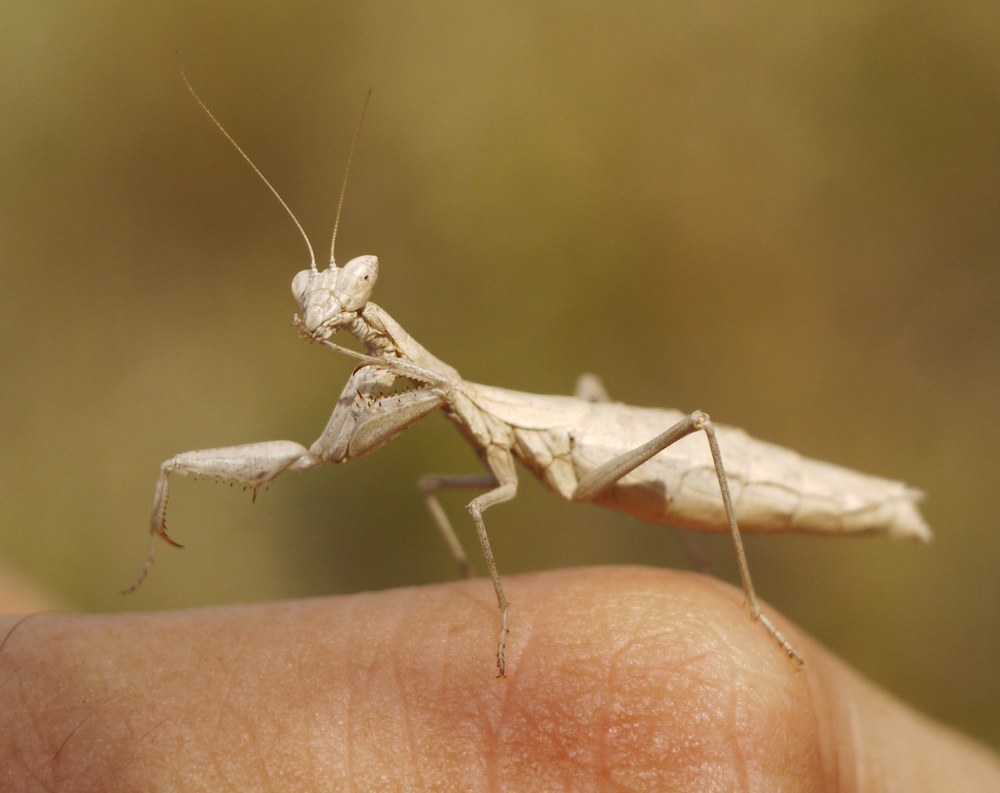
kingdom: Animalia
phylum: Arthropoda
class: Insecta
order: Mantodea
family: Amelidae
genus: Ameles
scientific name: Ameles heldreichi
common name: Heldreich's dwarf mantis
